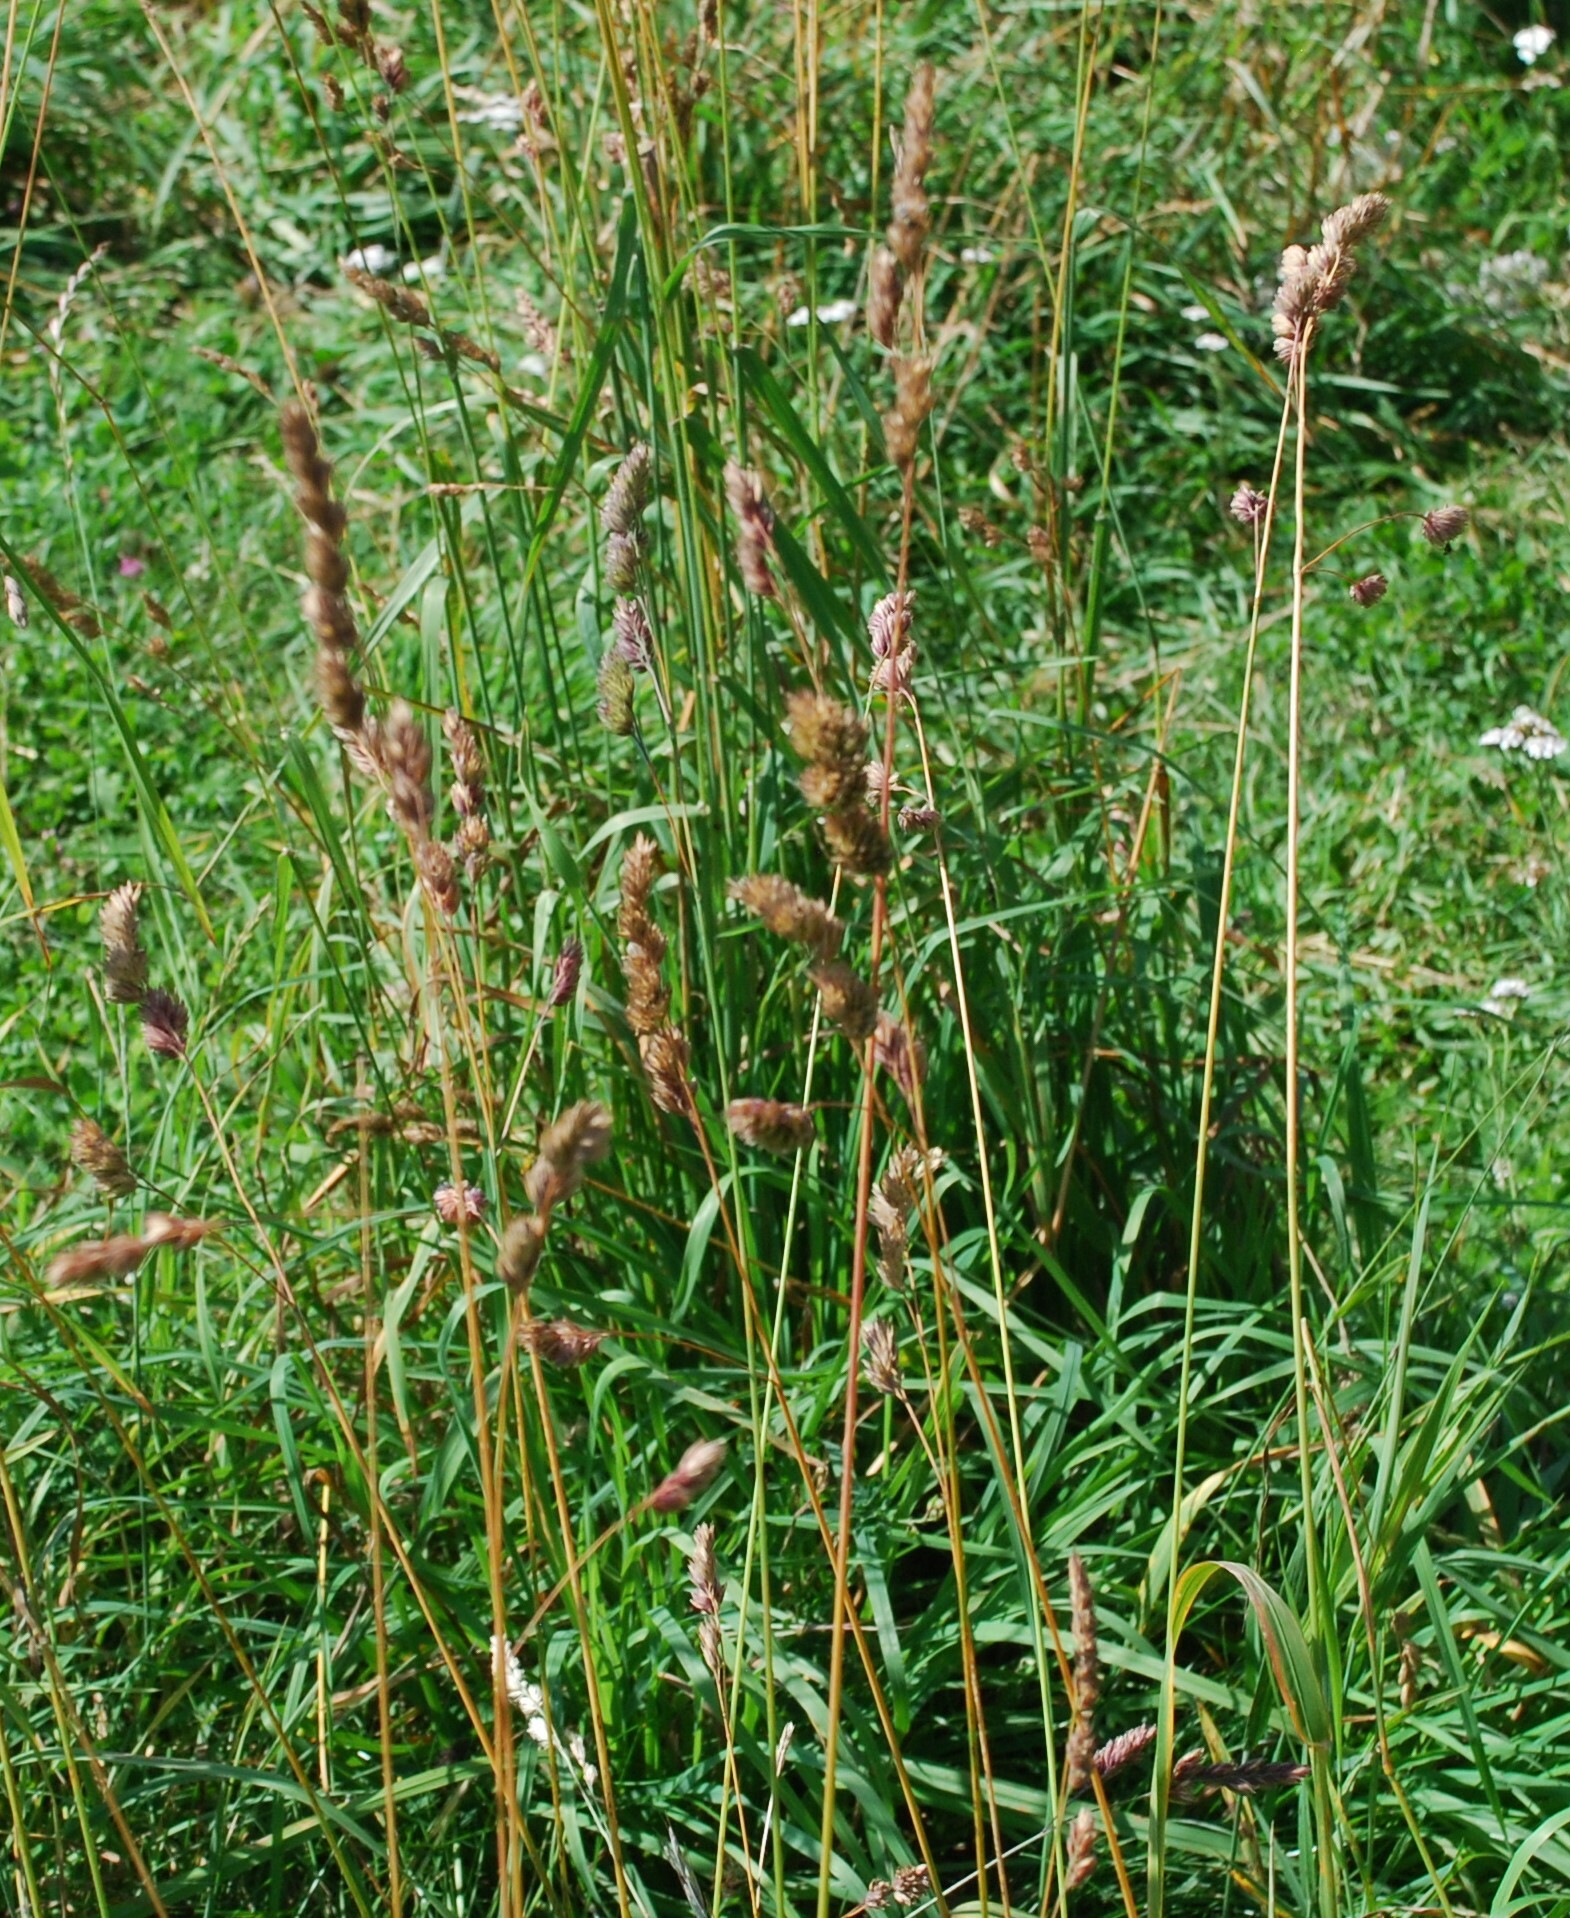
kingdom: Plantae
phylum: Tracheophyta
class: Liliopsida
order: Poales
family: Poaceae
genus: Dactylis
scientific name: Dactylis glomerata
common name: Orchardgrass
